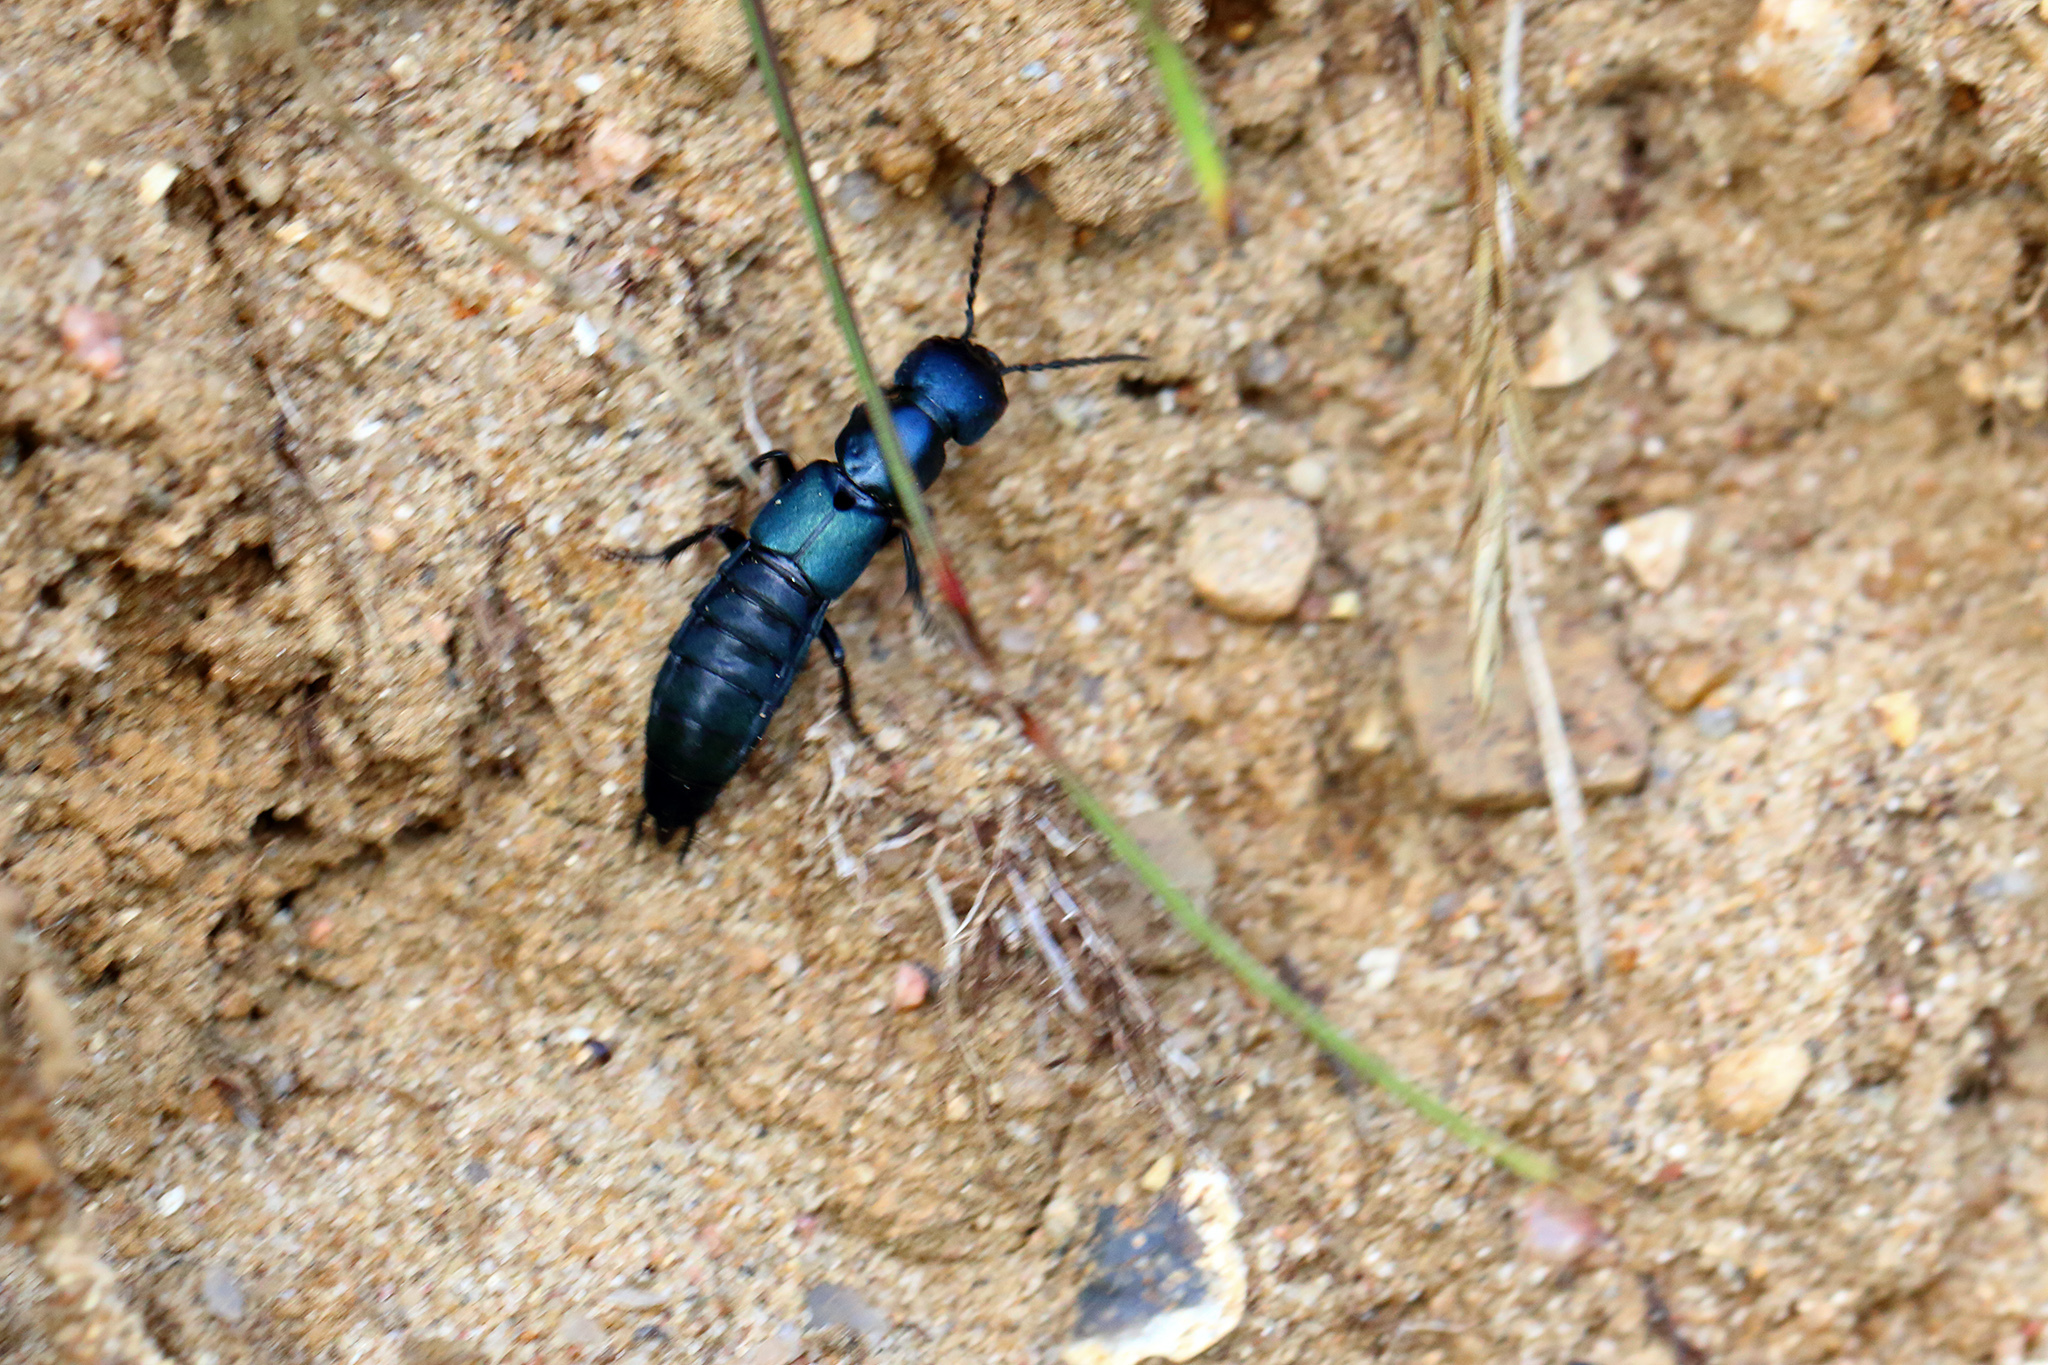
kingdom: Animalia
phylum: Arthropoda
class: Insecta
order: Coleoptera
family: Staphylinidae
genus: Ocypus
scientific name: Ocypus ophthalmicus
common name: Blue rove-beetle
